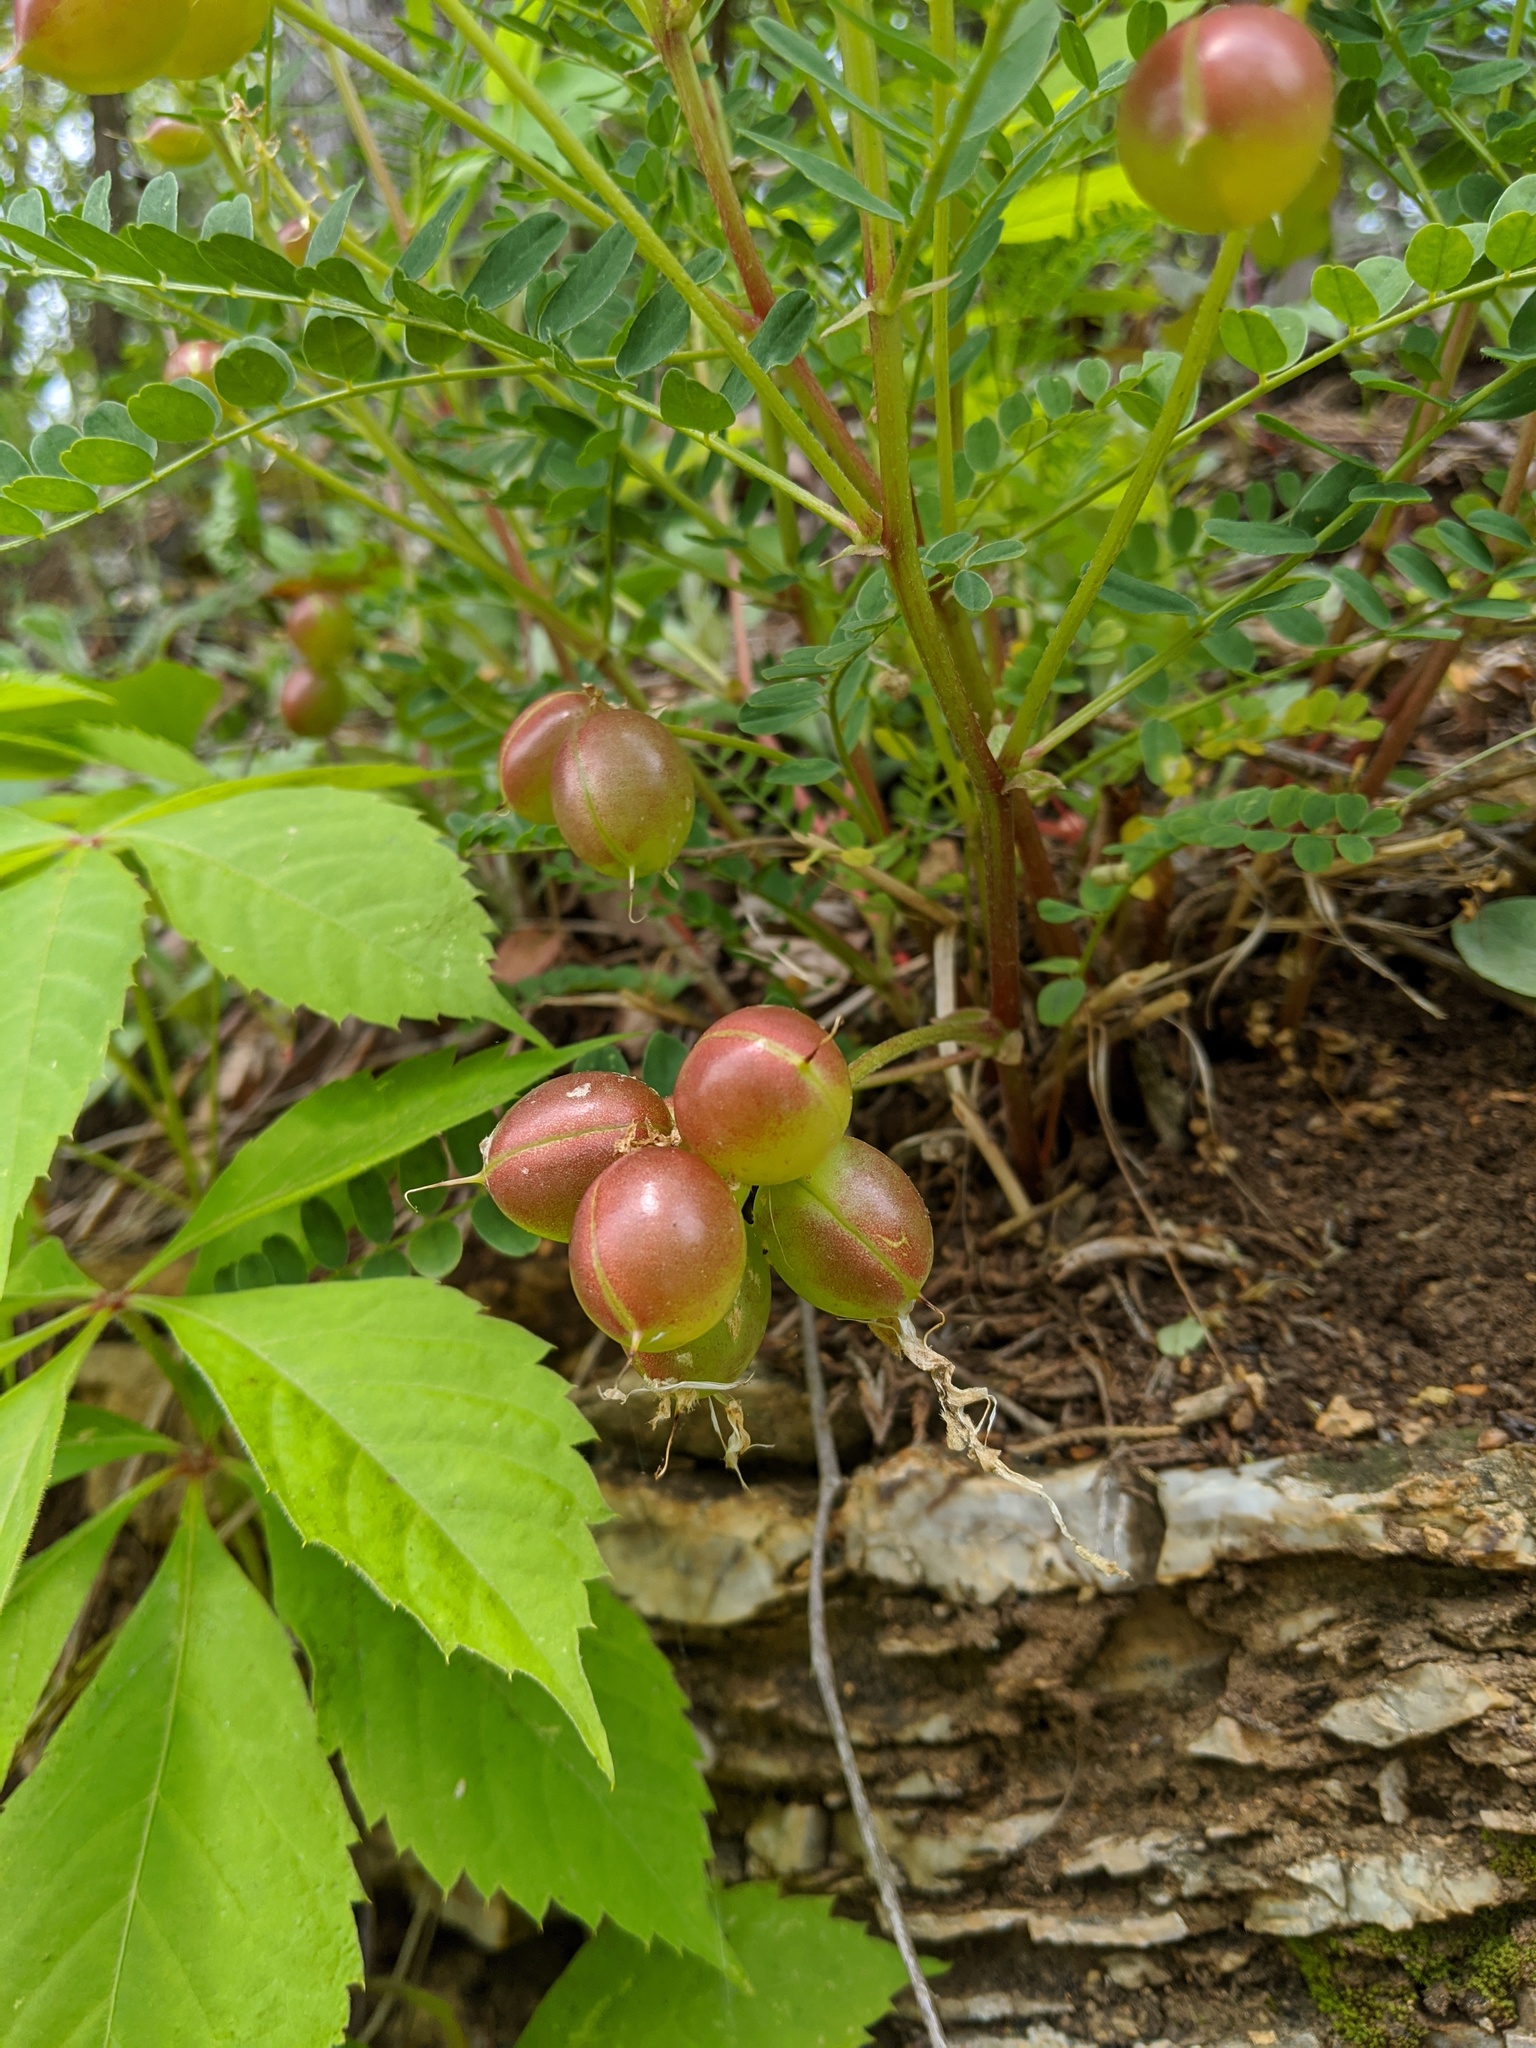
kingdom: Plantae
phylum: Tracheophyta
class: Magnoliopsida
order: Fabales
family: Fabaceae
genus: Astragalus
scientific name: Astragalus crassicarpus
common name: Ground-plum milk-vetch
